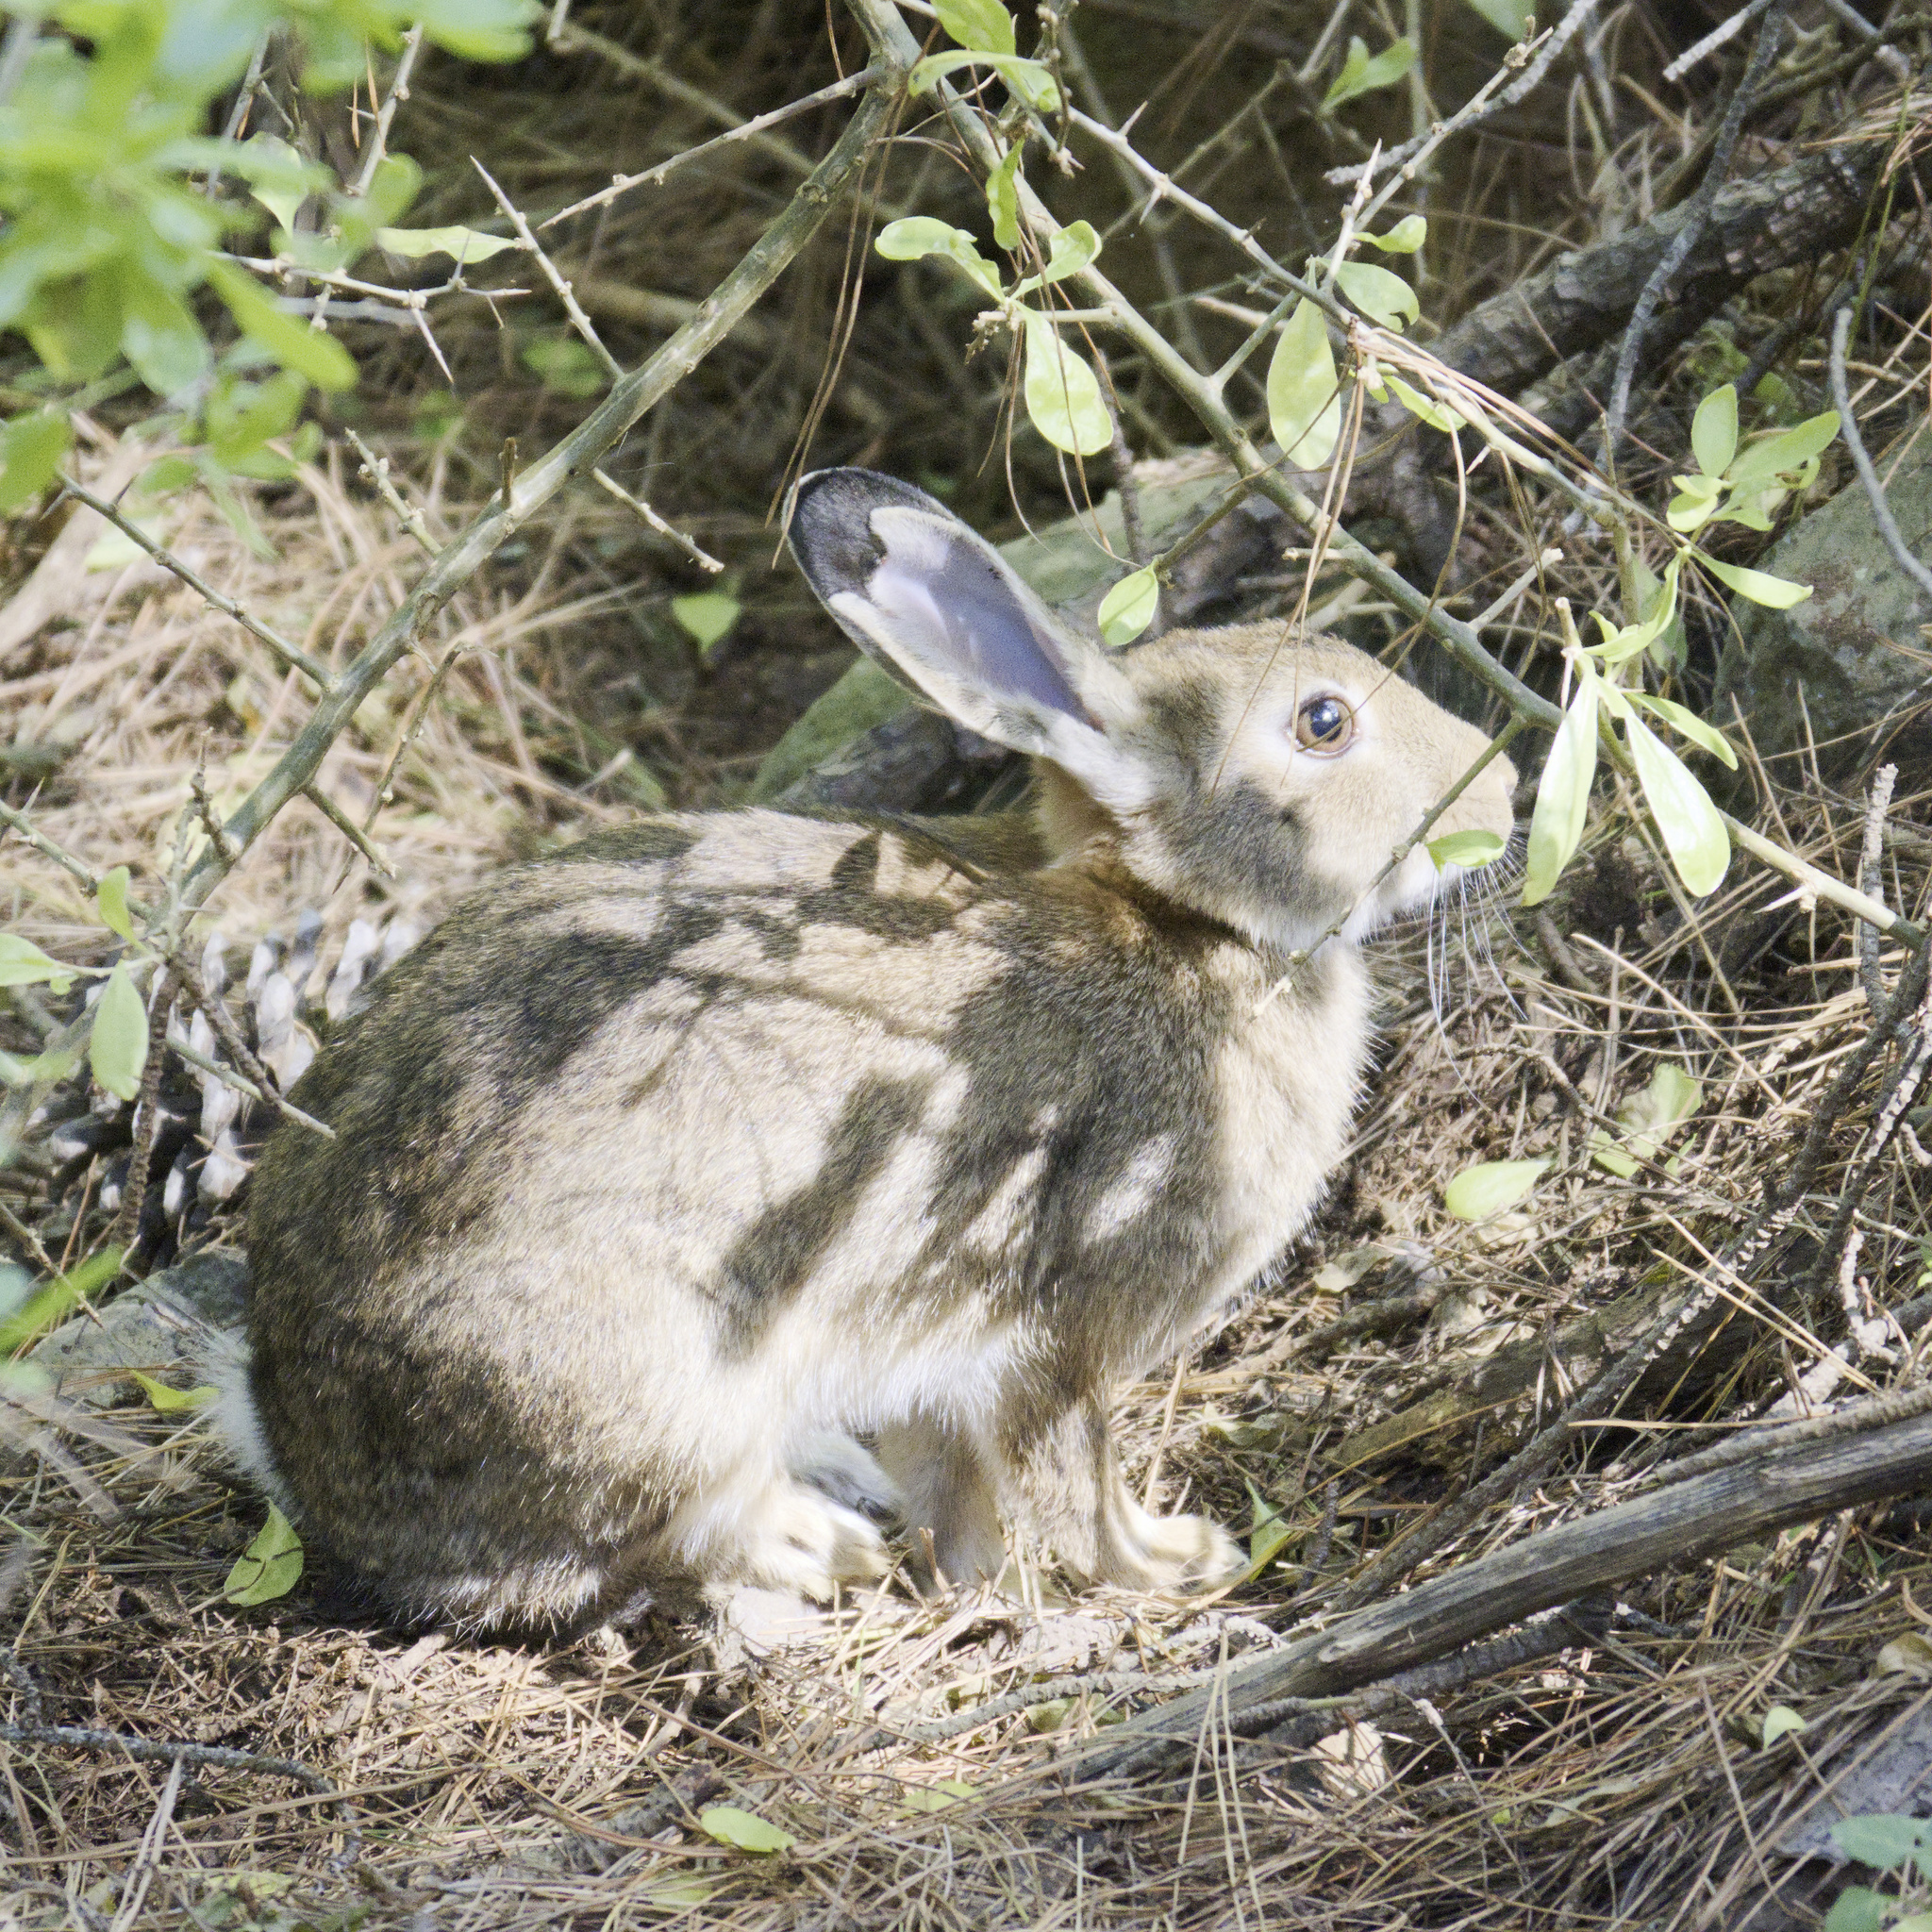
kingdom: Animalia
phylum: Chordata
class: Mammalia
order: Lagomorpha
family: Leporidae
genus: Oryctolagus
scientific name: Oryctolagus cuniculus
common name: European rabbit
